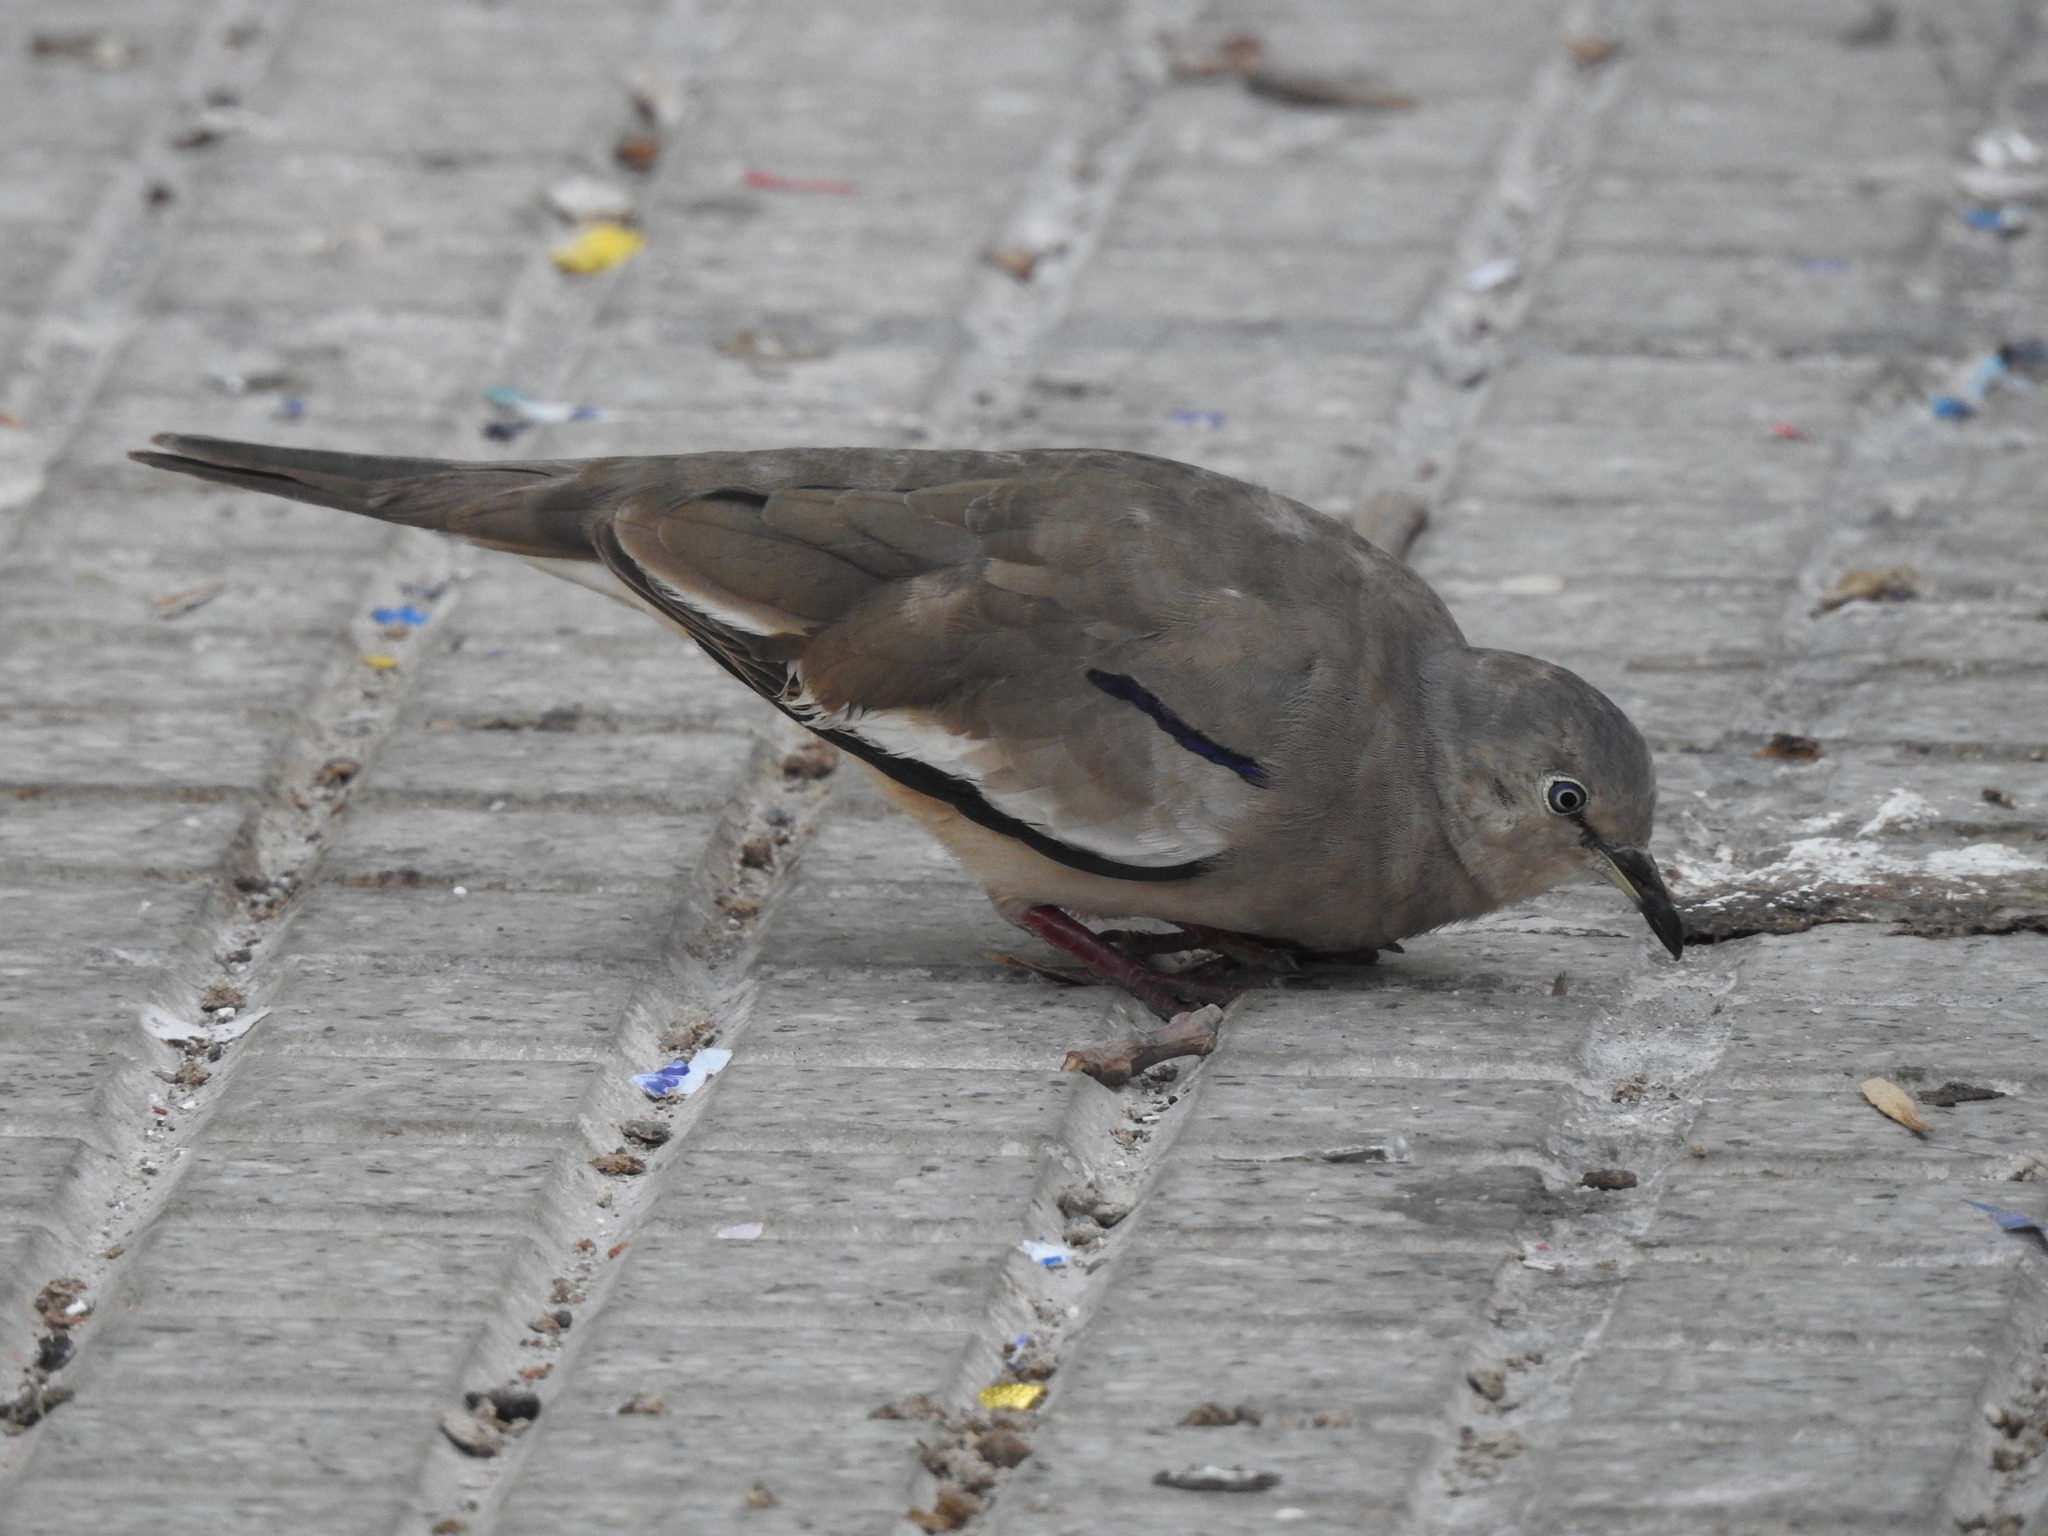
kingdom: Animalia
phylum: Chordata
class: Aves
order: Columbiformes
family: Columbidae
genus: Columbina
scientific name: Columbina picui
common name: Picui ground dove
